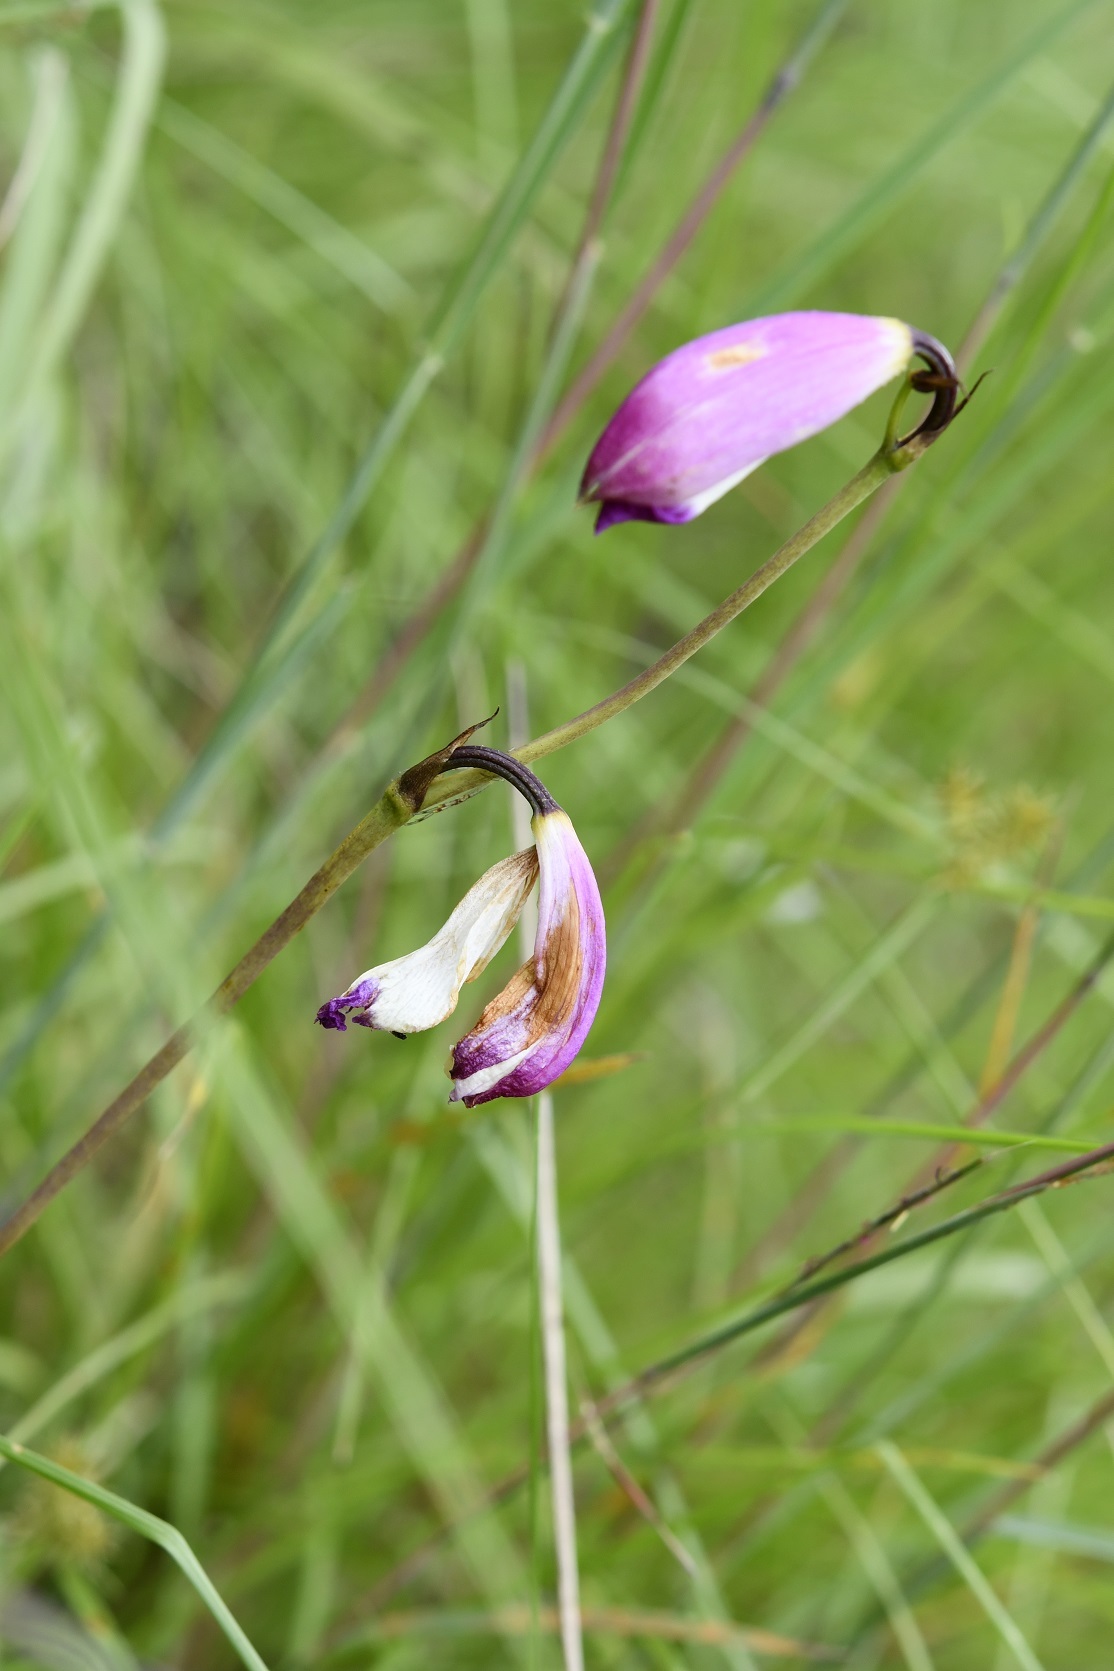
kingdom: Plantae
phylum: Tracheophyta
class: Liliopsida
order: Asparagales
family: Orchidaceae
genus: Bletia
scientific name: Bletia campanulata
